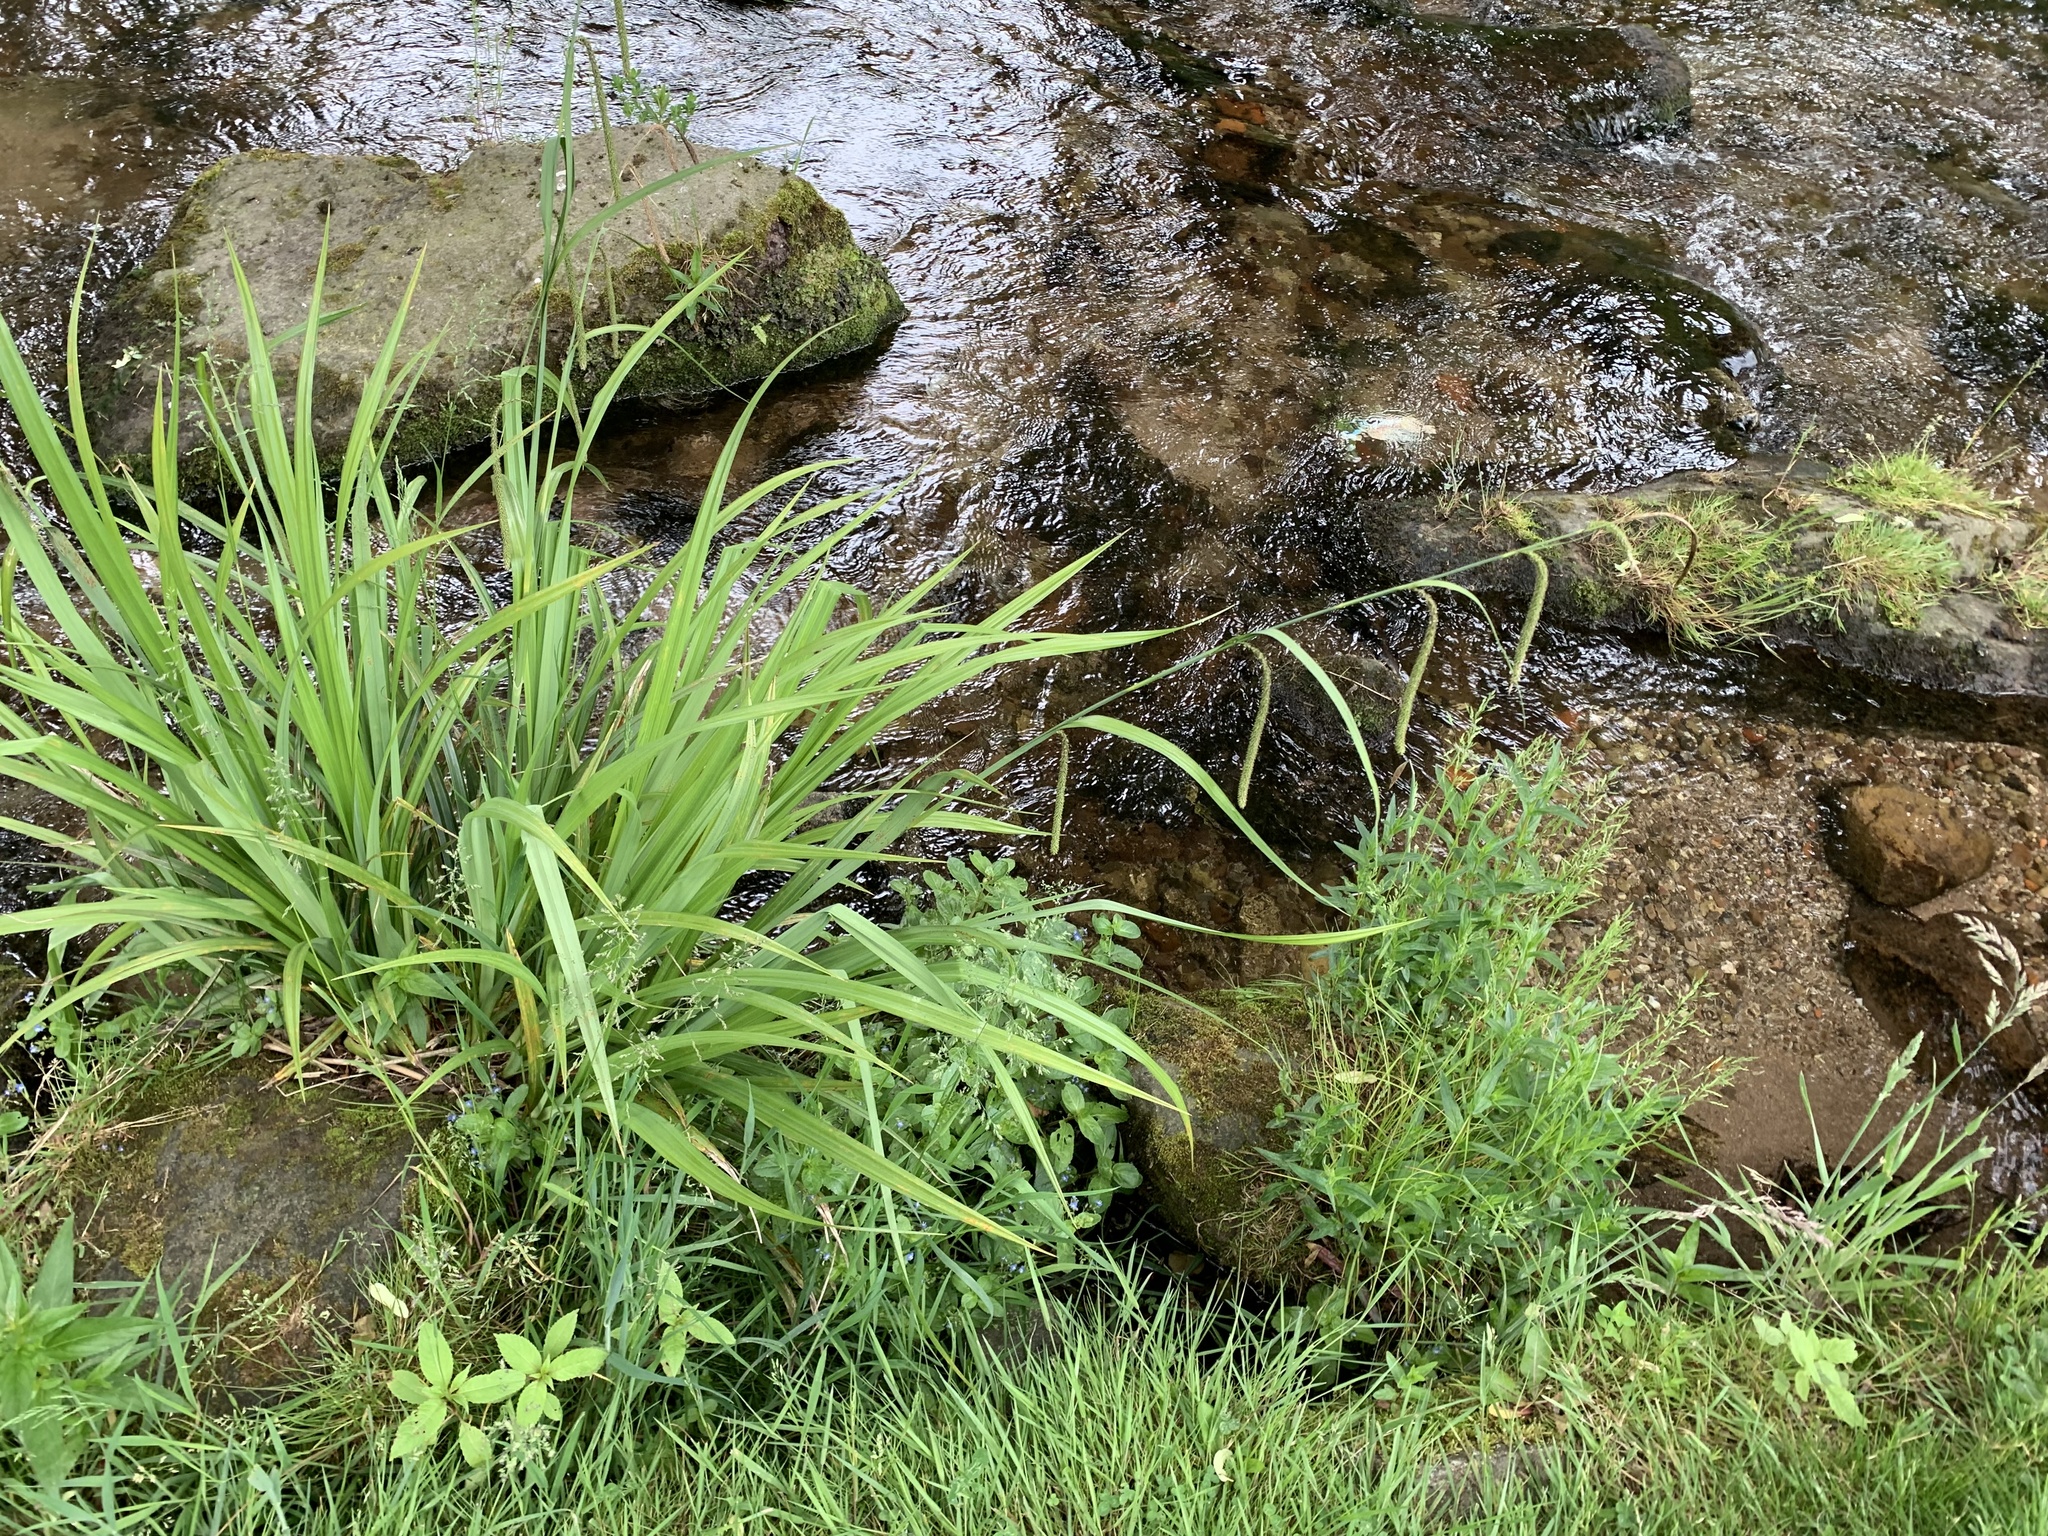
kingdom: Plantae
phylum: Tracheophyta
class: Liliopsida
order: Poales
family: Cyperaceae
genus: Carex
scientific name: Carex pendula
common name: Pendulous sedge
